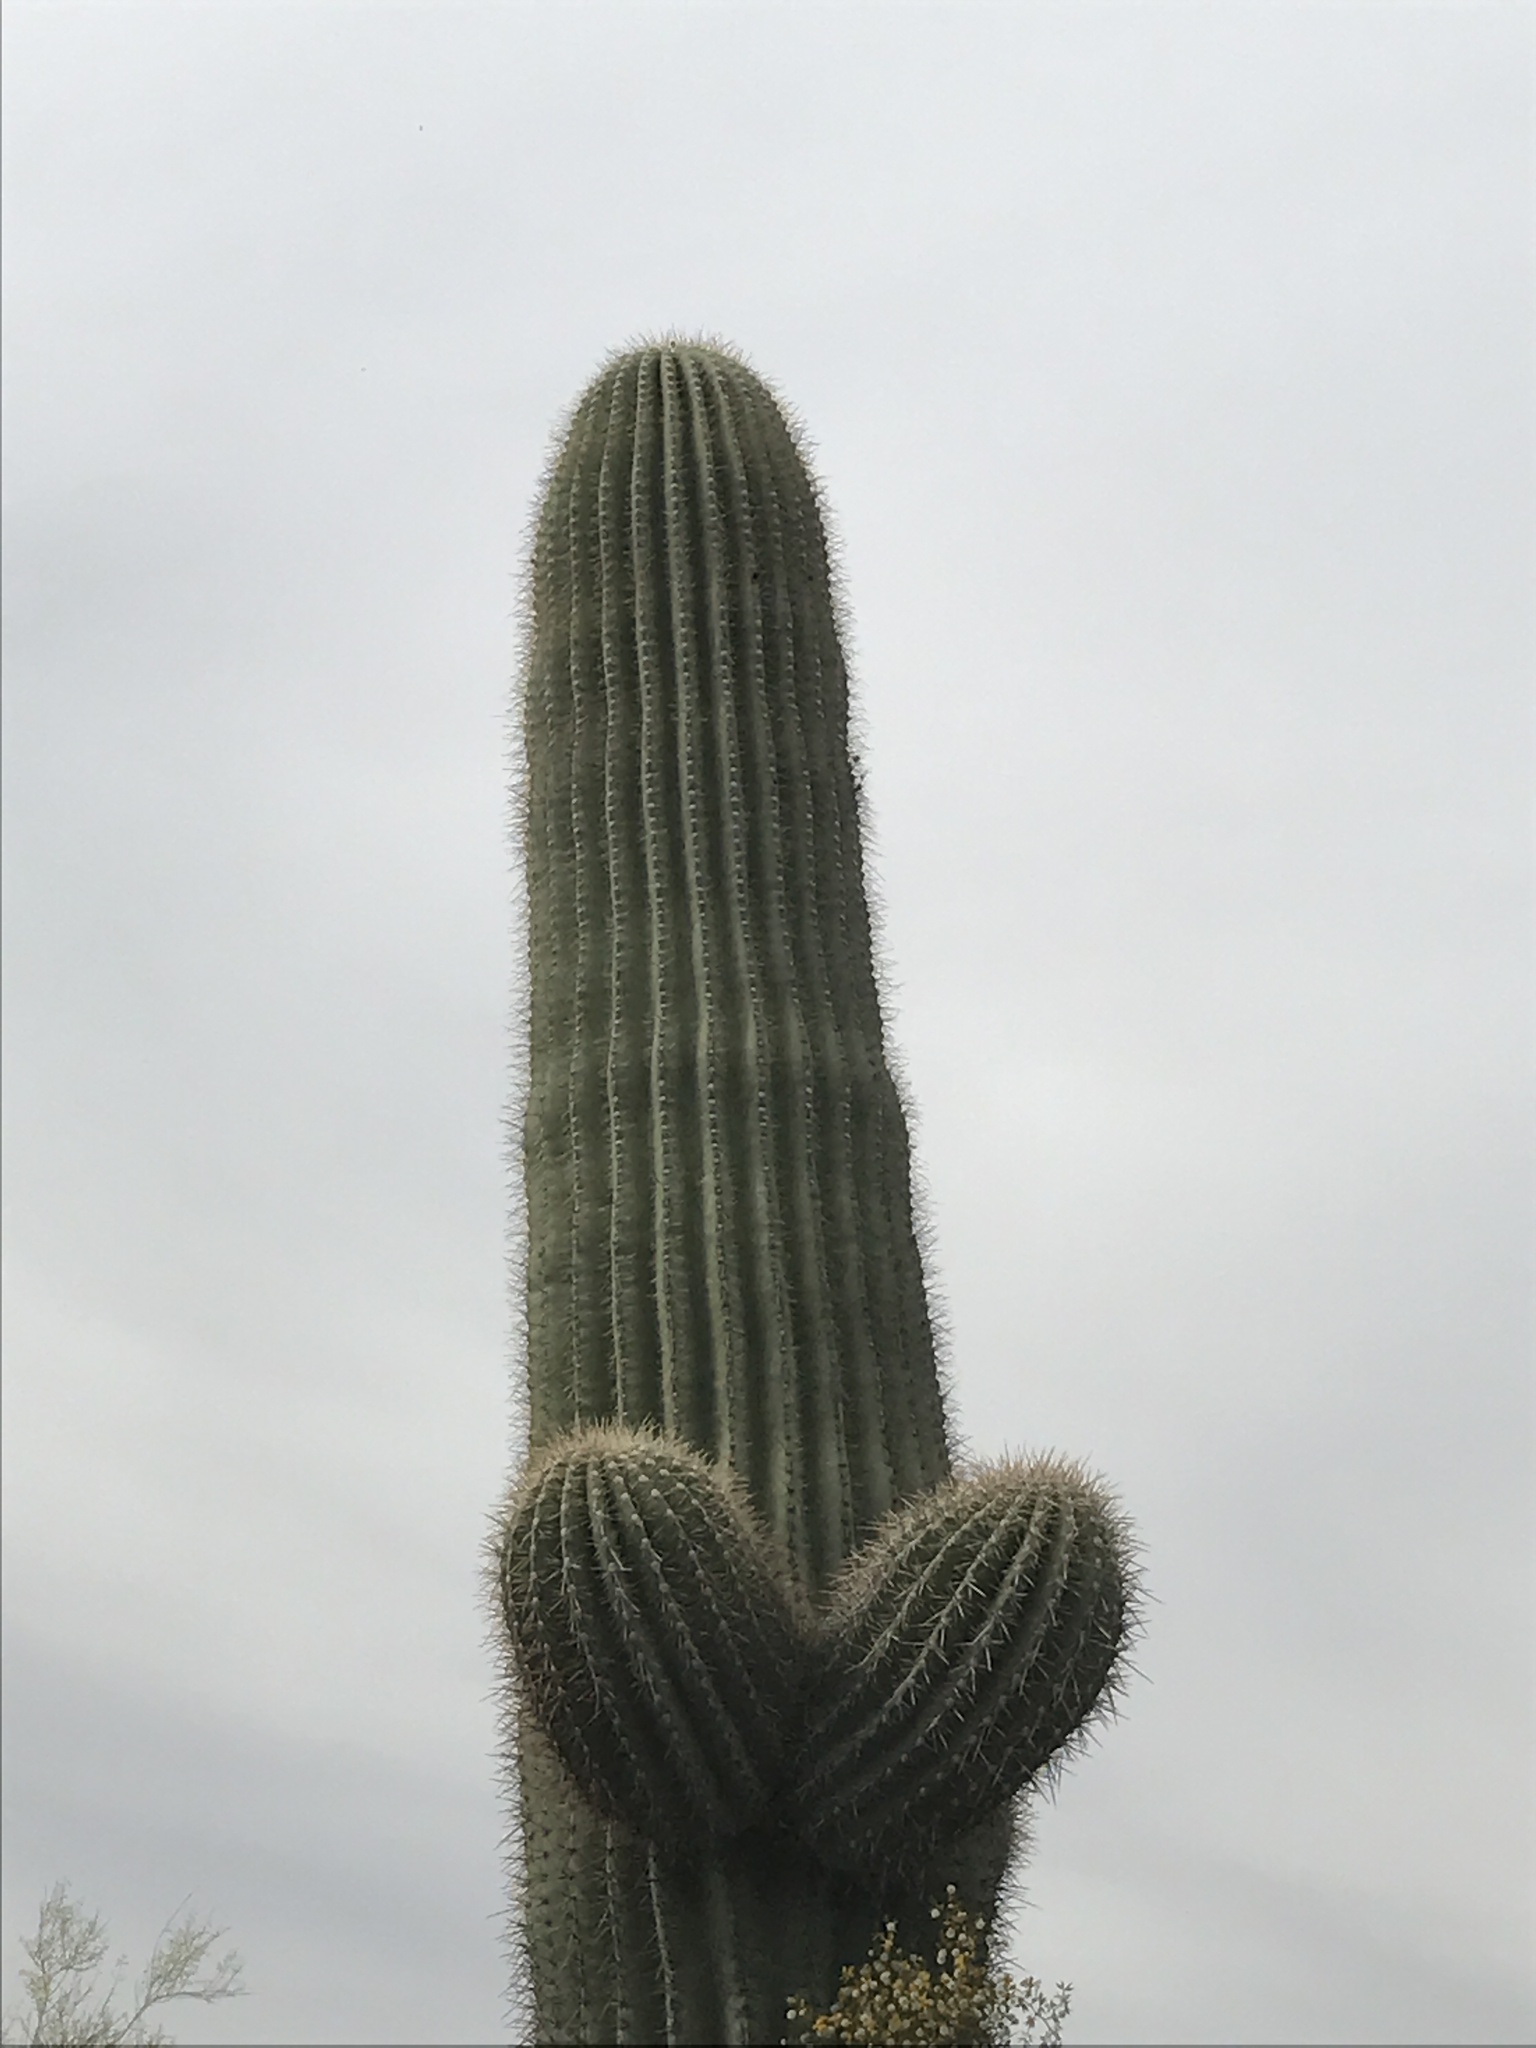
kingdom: Plantae
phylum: Tracheophyta
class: Magnoliopsida
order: Caryophyllales
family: Cactaceae
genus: Carnegiea
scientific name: Carnegiea gigantea
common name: Saguaro
